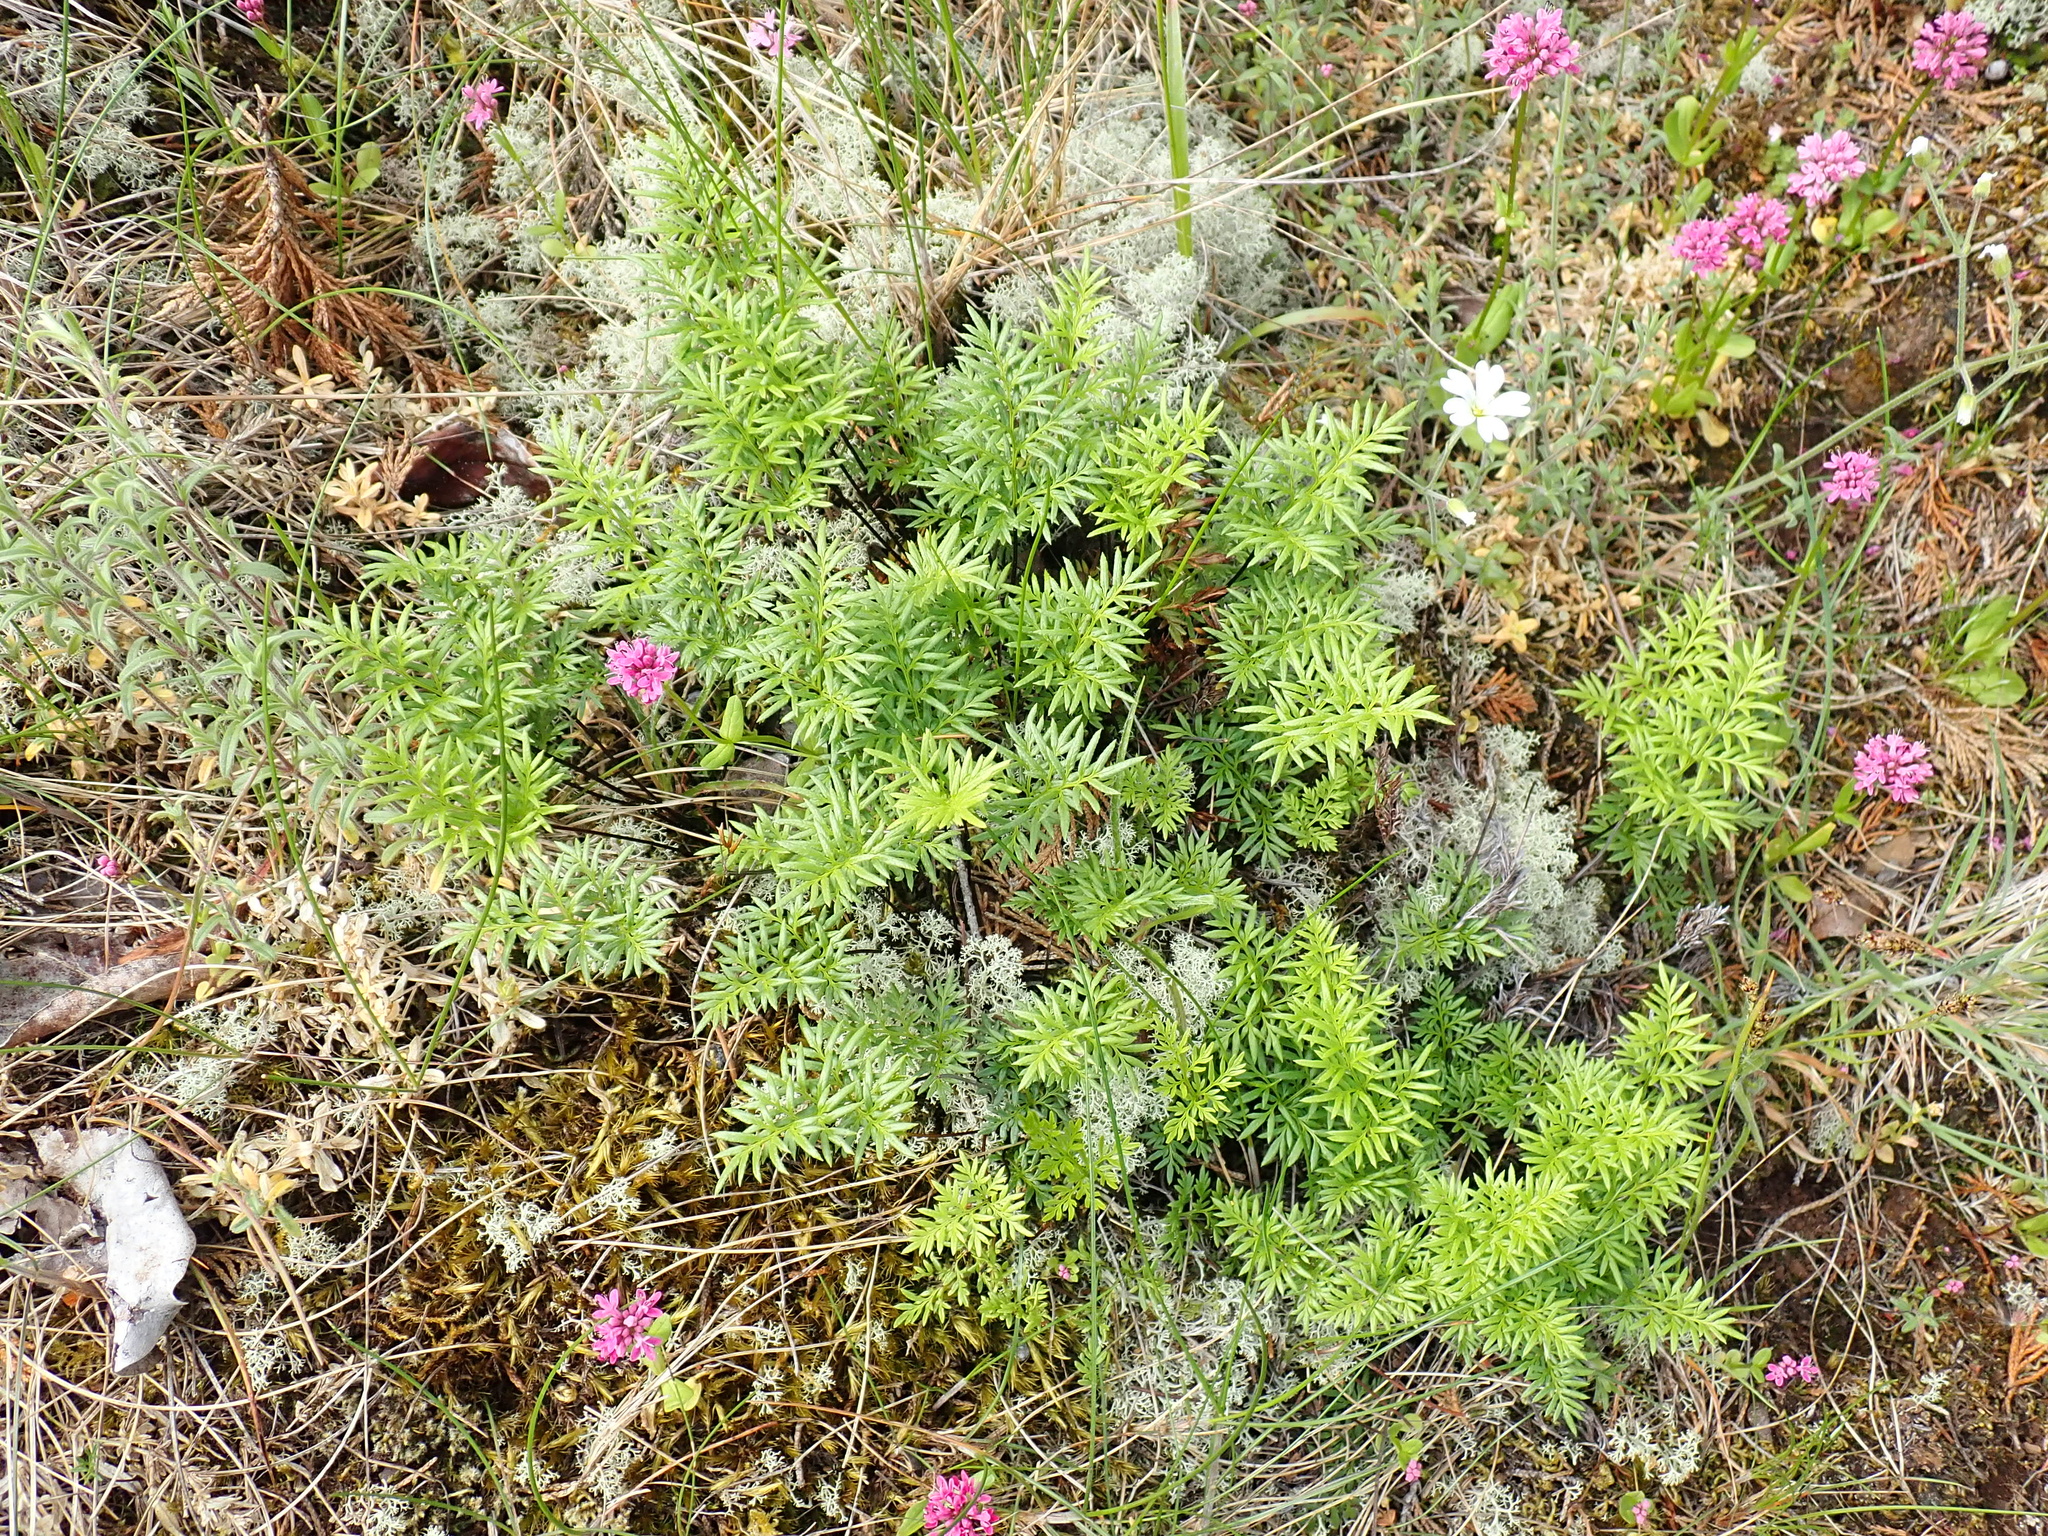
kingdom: Plantae
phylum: Tracheophyta
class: Polypodiopsida
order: Polypodiales
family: Pteridaceae
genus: Aspidotis
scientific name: Aspidotis densa
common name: Indian's dream
